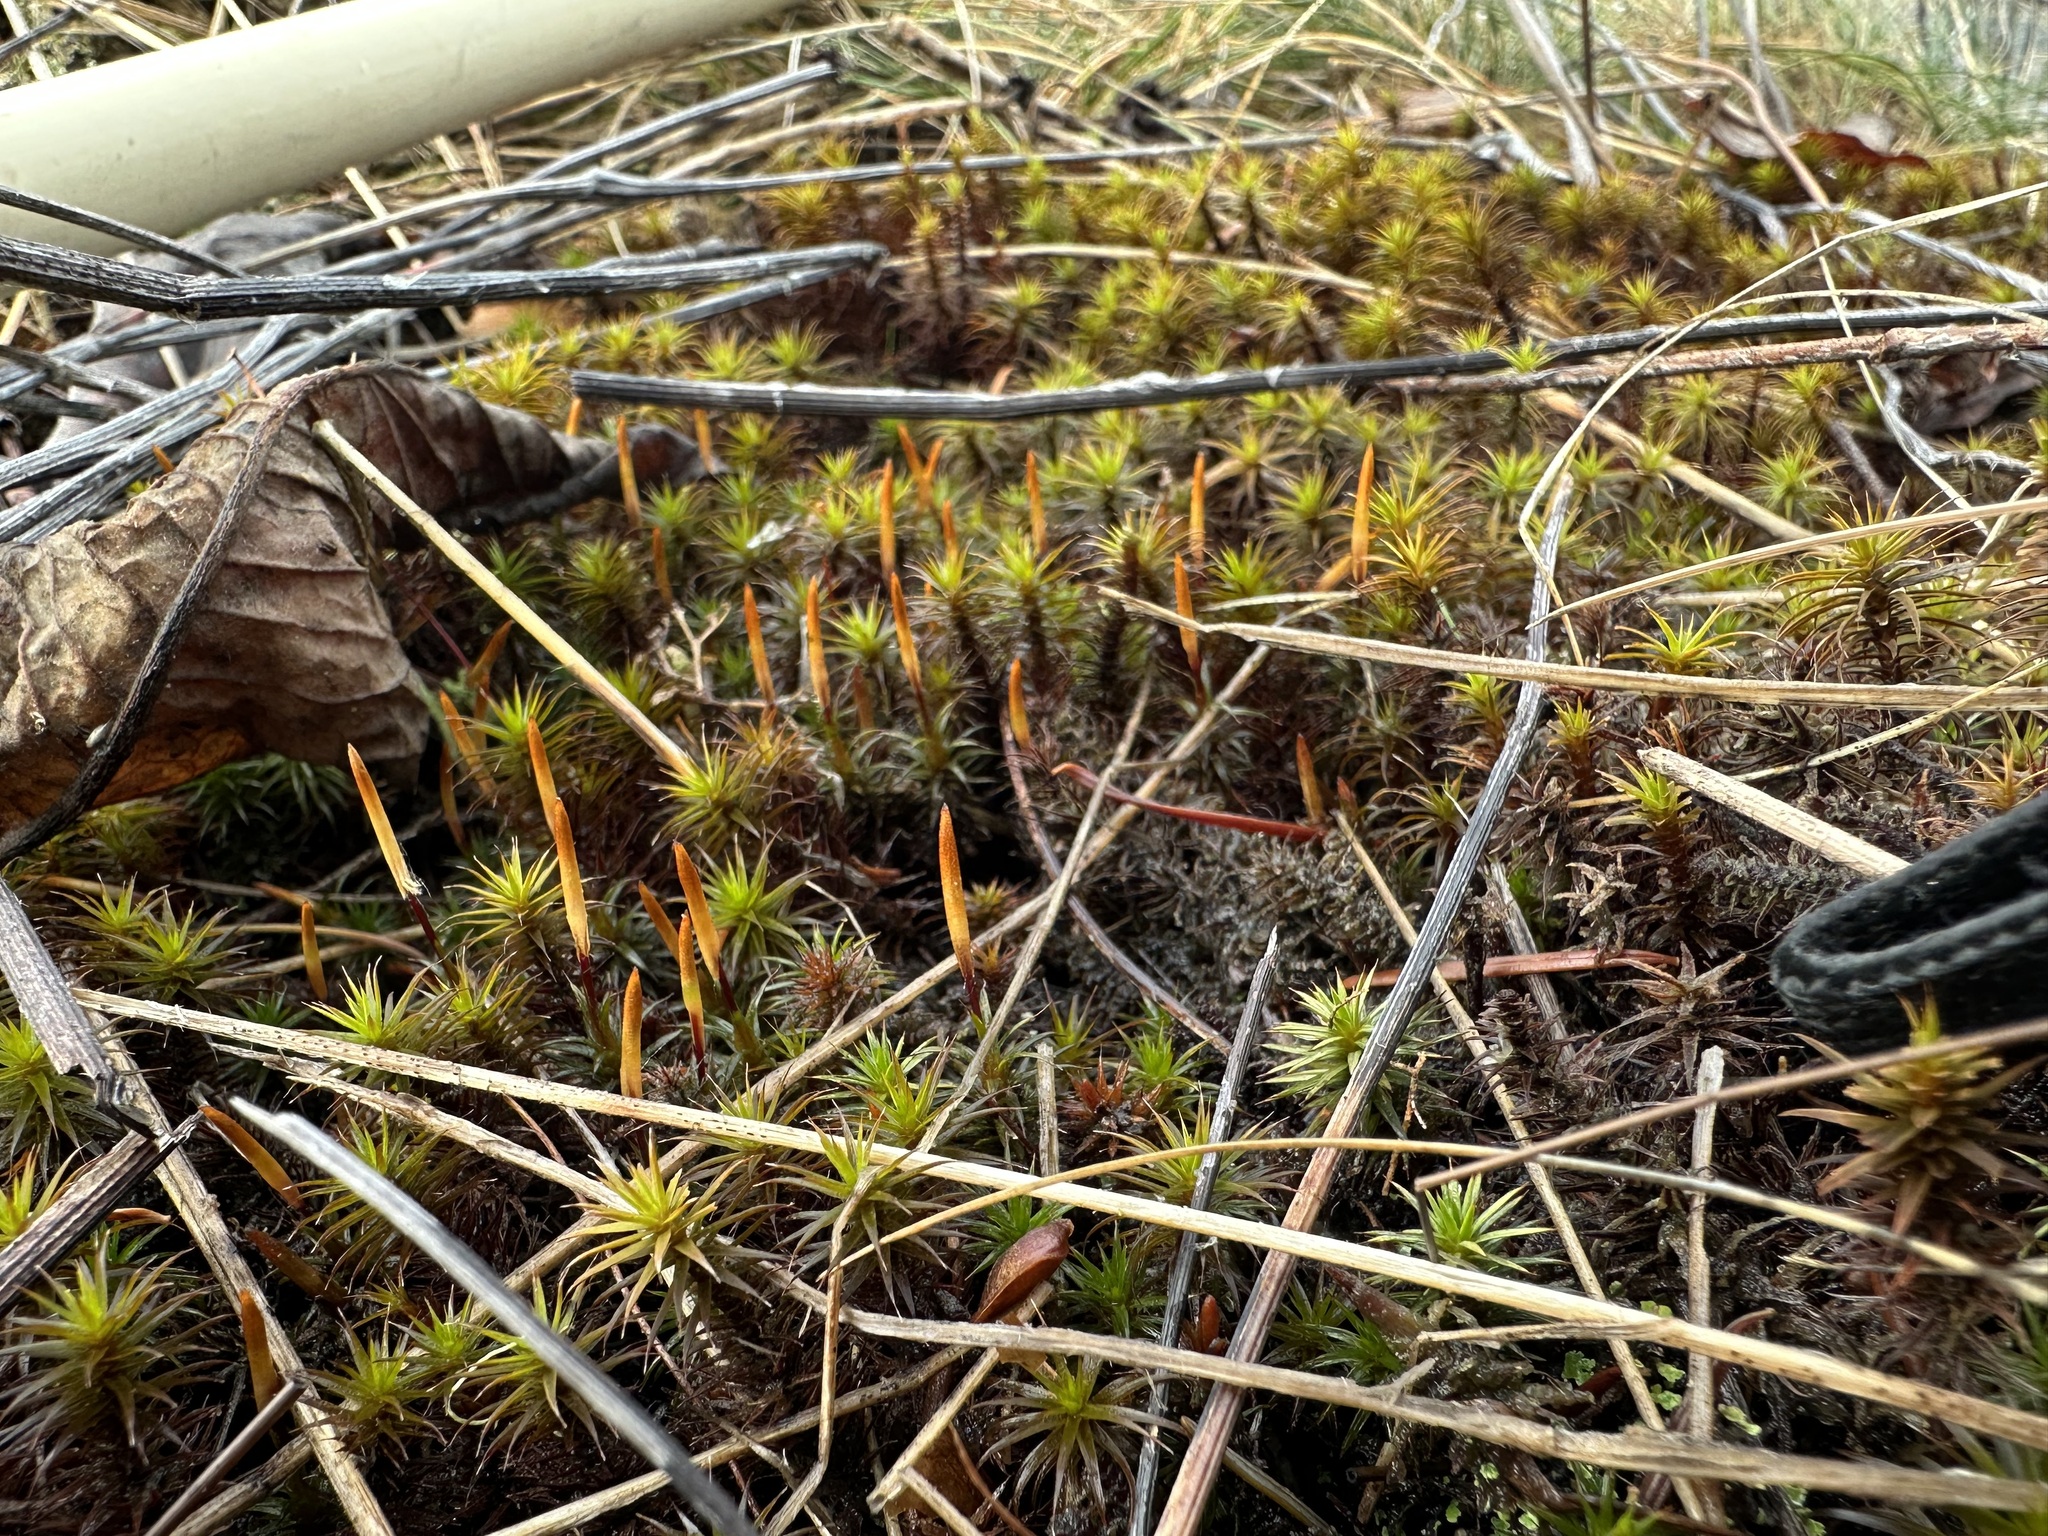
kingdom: Plantae
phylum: Bryophyta
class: Polytrichopsida
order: Polytrichales
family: Polytrichaceae
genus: Polytrichum
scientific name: Polytrichum juniperinum
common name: Juniper haircap moss
